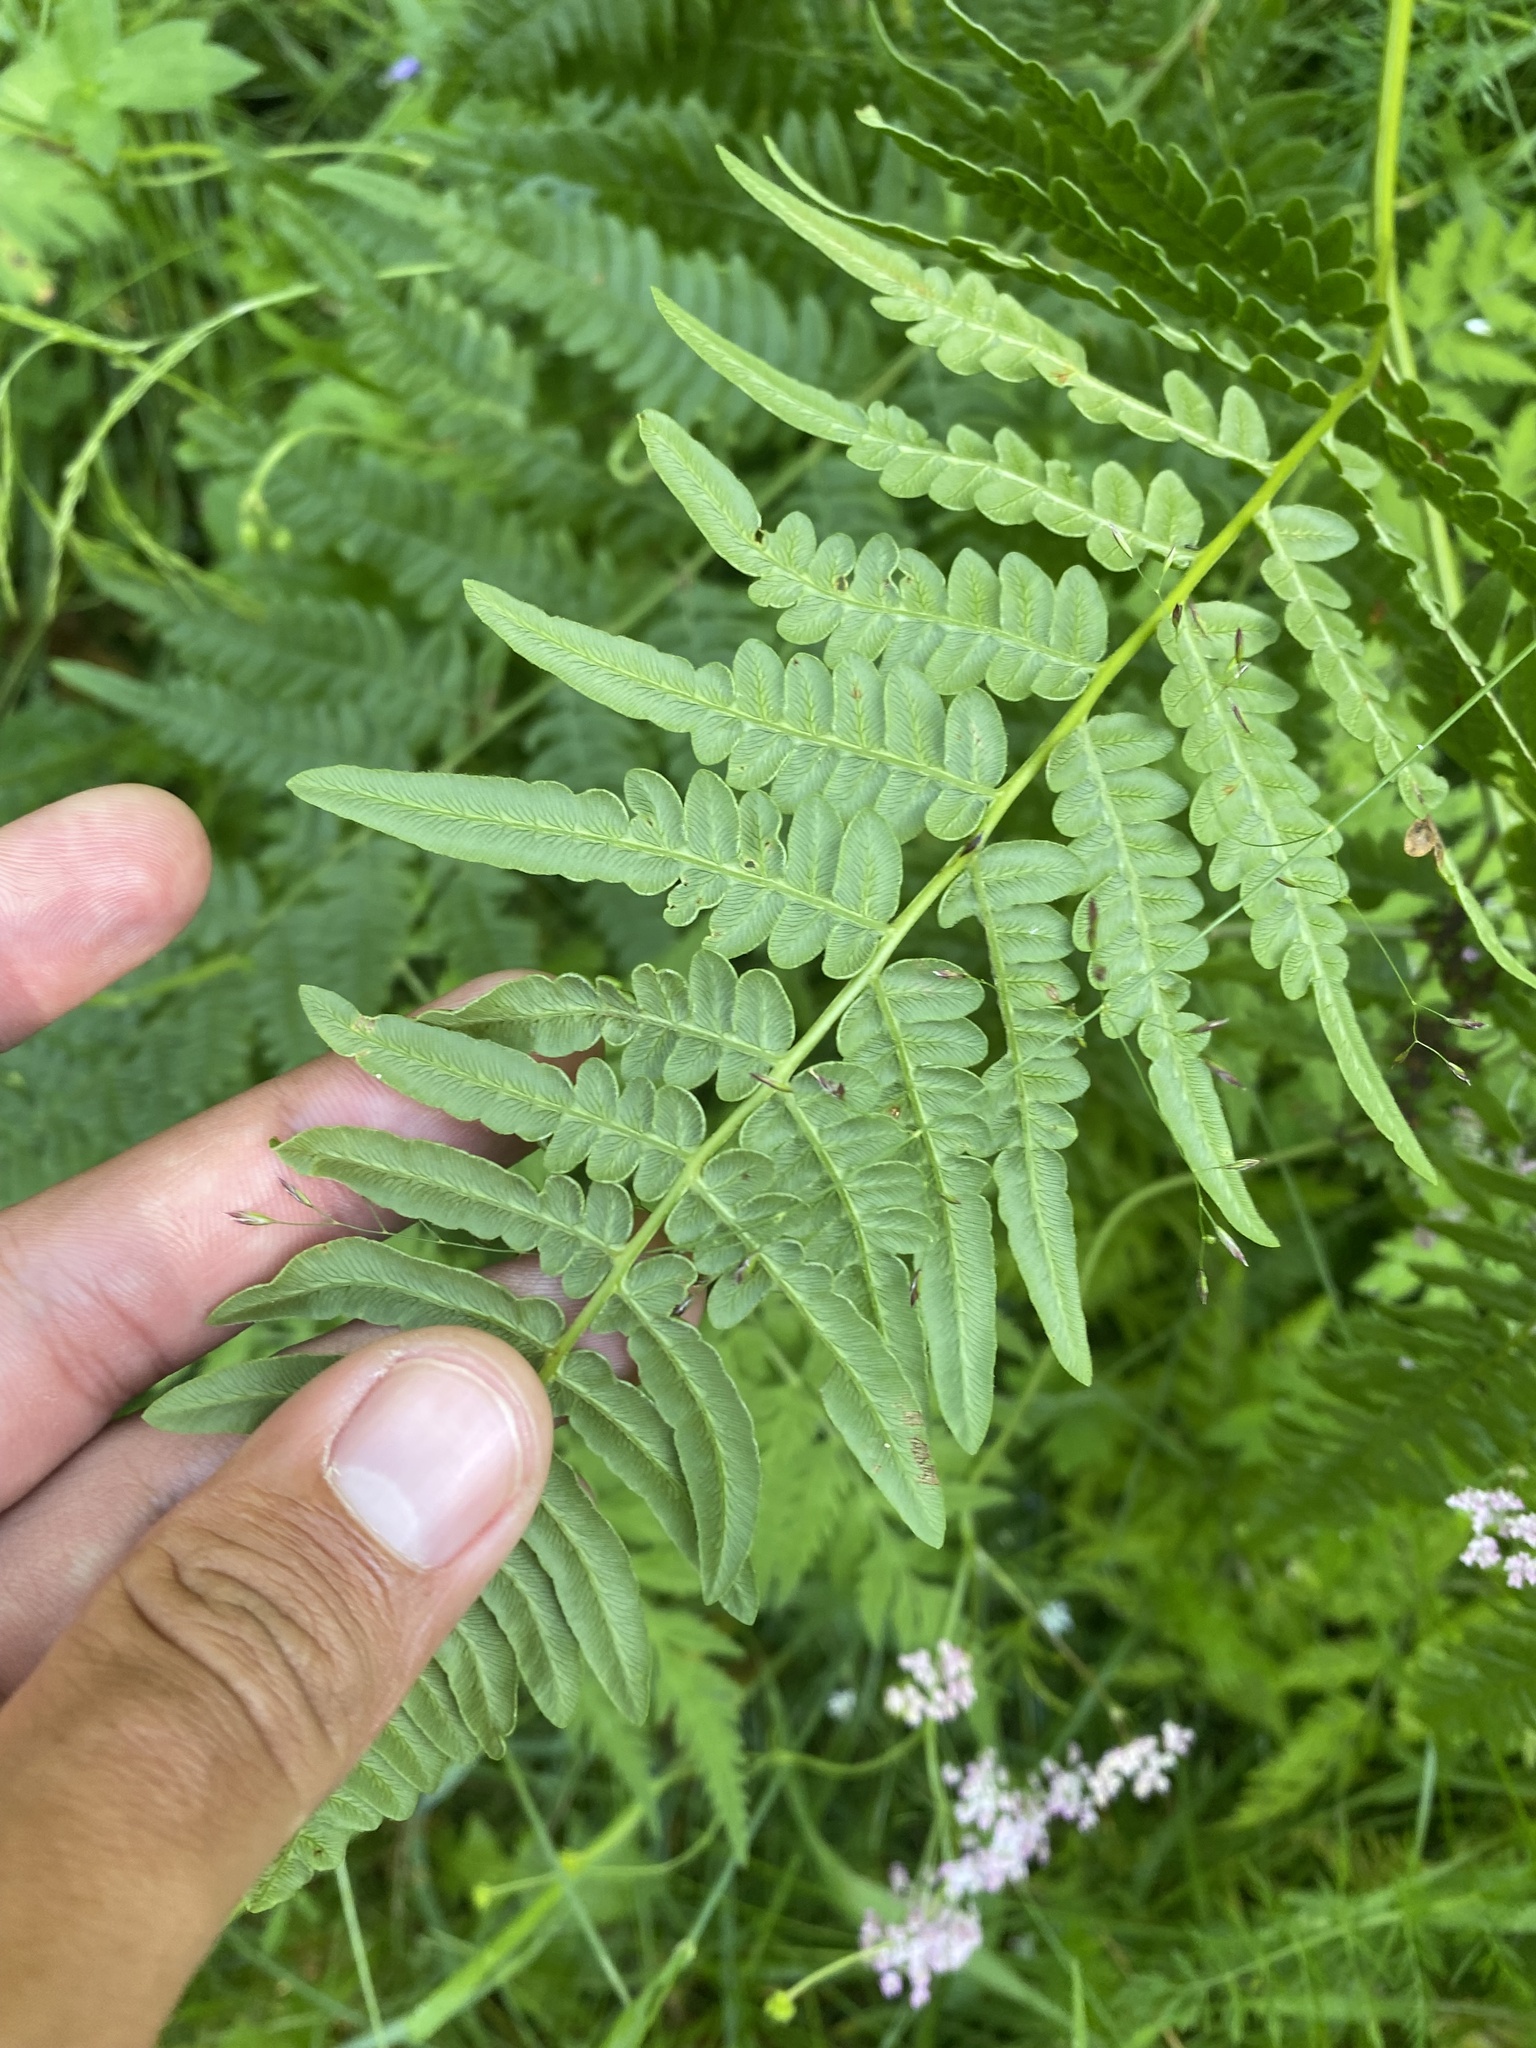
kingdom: Plantae
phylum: Tracheophyta
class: Polypodiopsida
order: Polypodiales
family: Dennstaedtiaceae
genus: Pteridium
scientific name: Pteridium aquilinum
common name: Bracken
